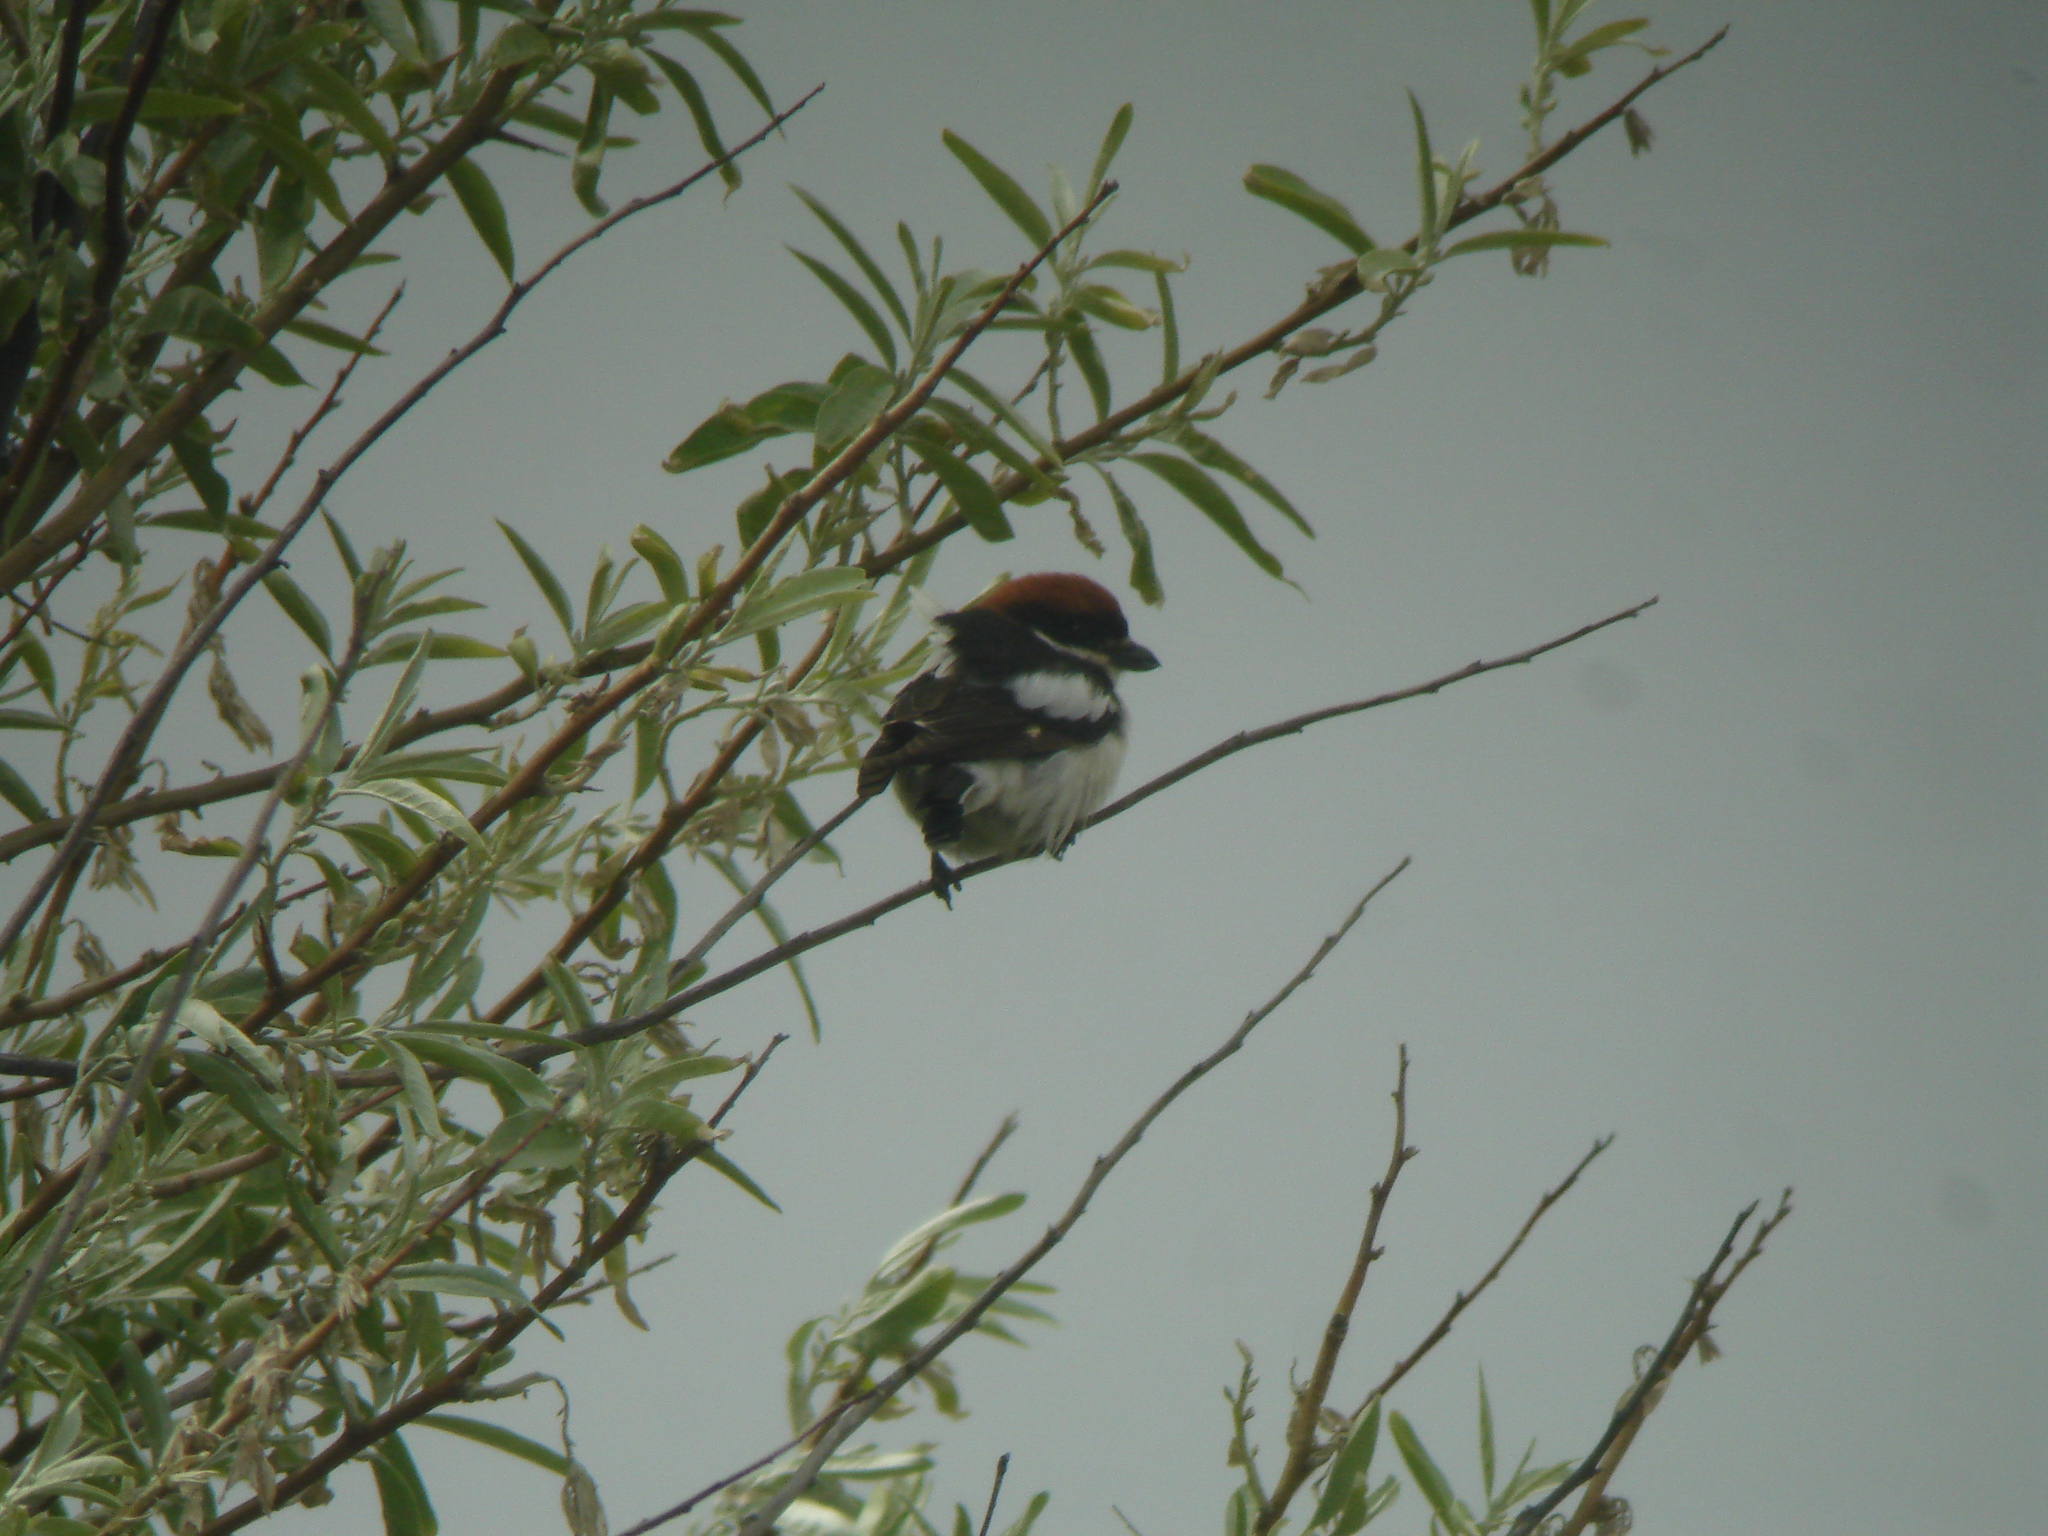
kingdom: Animalia
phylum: Chordata
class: Aves
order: Passeriformes
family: Laniidae
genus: Lanius
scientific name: Lanius senator
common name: Woodchat shrike
